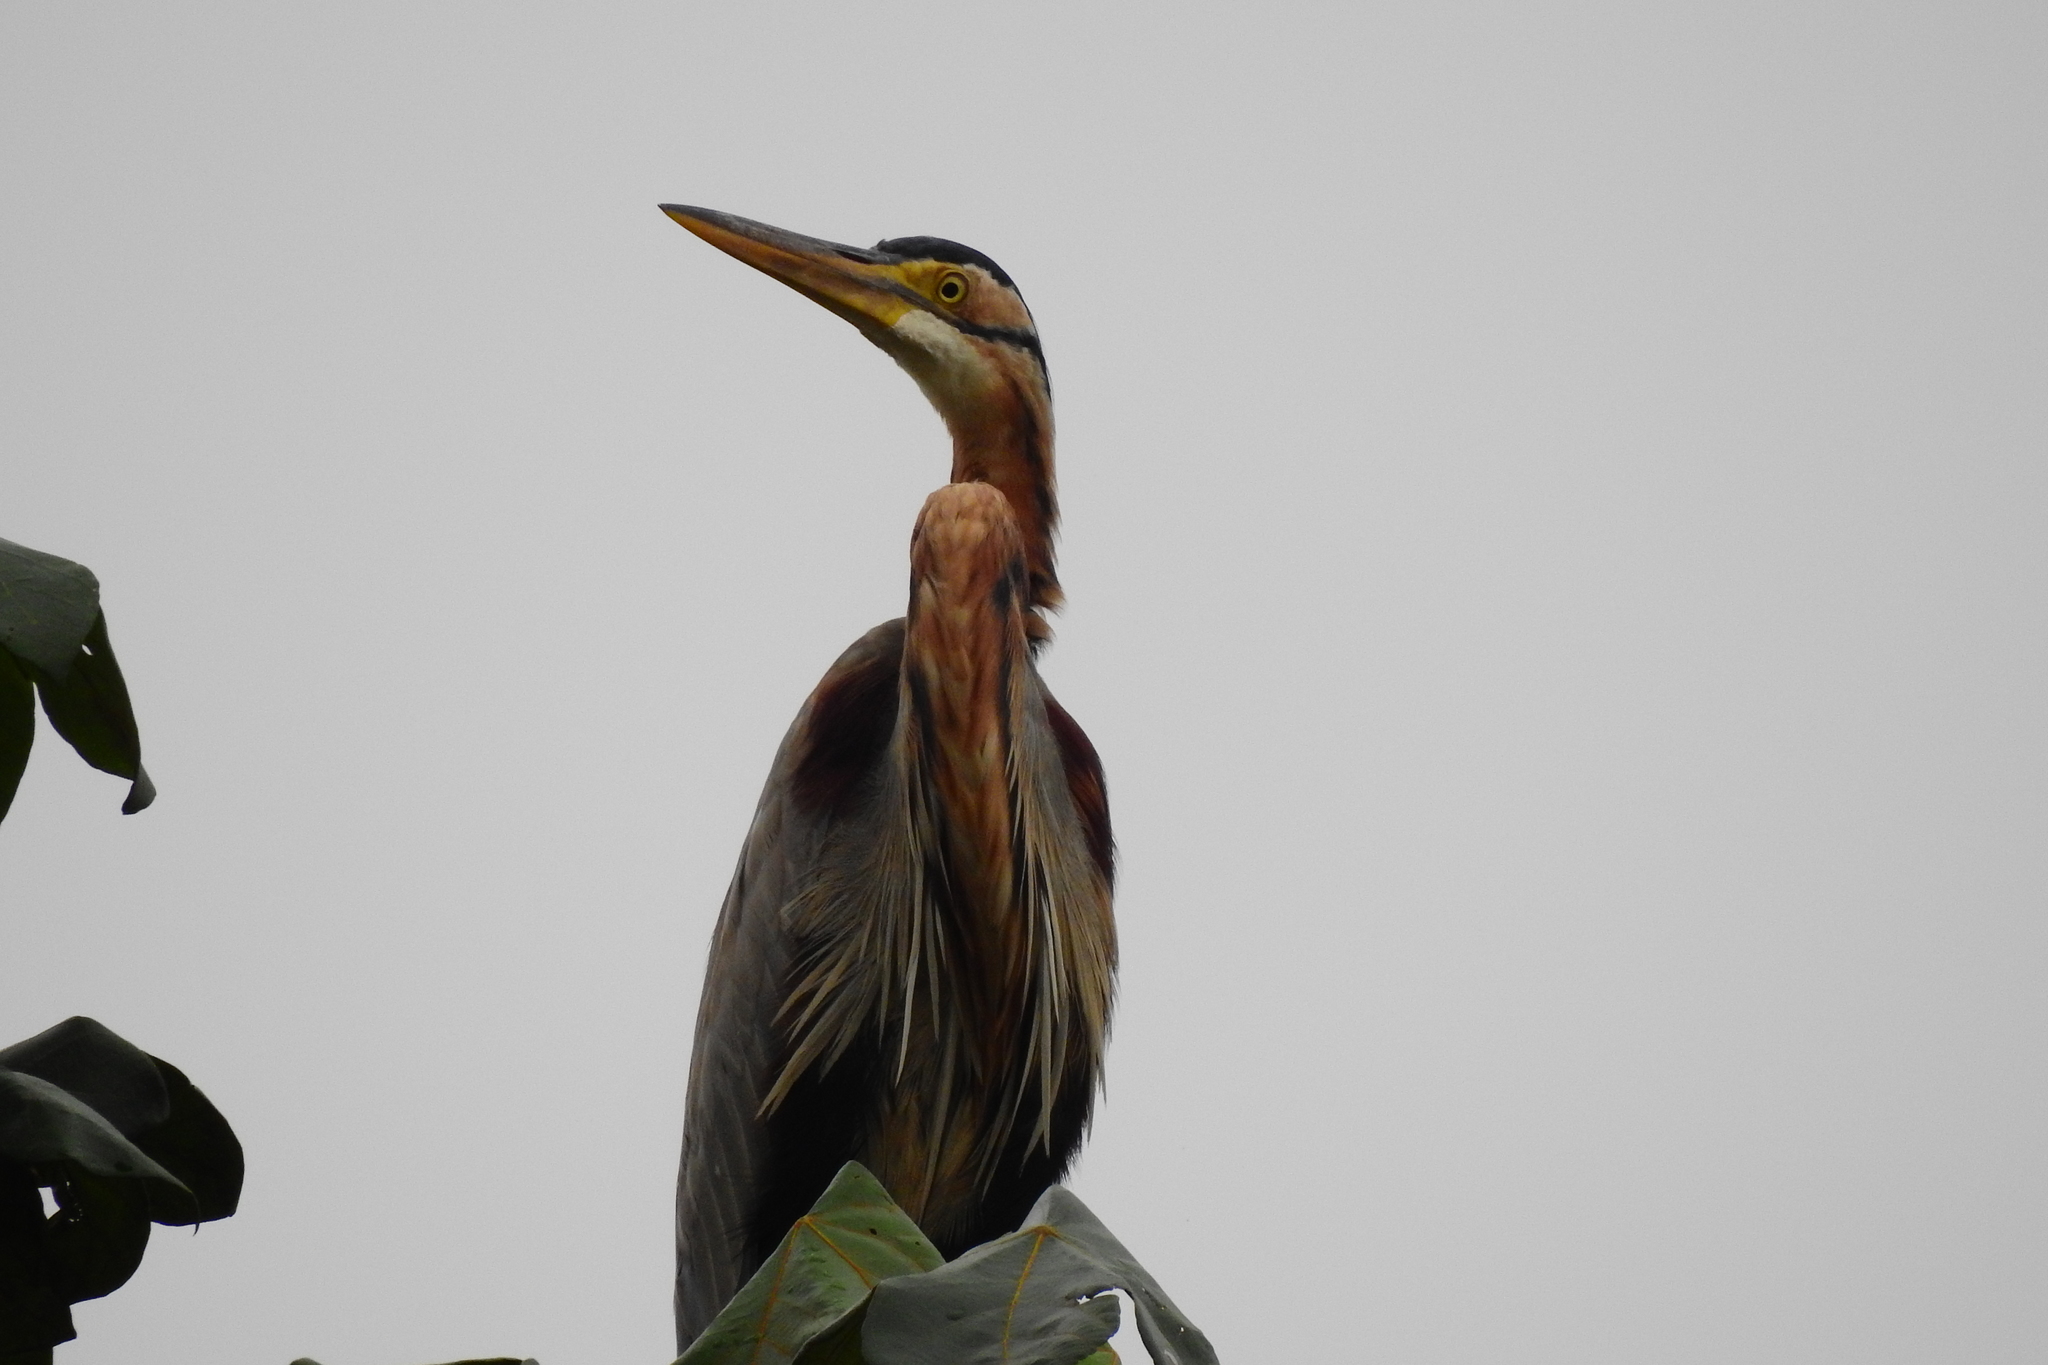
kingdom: Animalia
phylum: Chordata
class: Aves
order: Pelecaniformes
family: Ardeidae
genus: Ardea
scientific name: Ardea purpurea
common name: Purple heron
